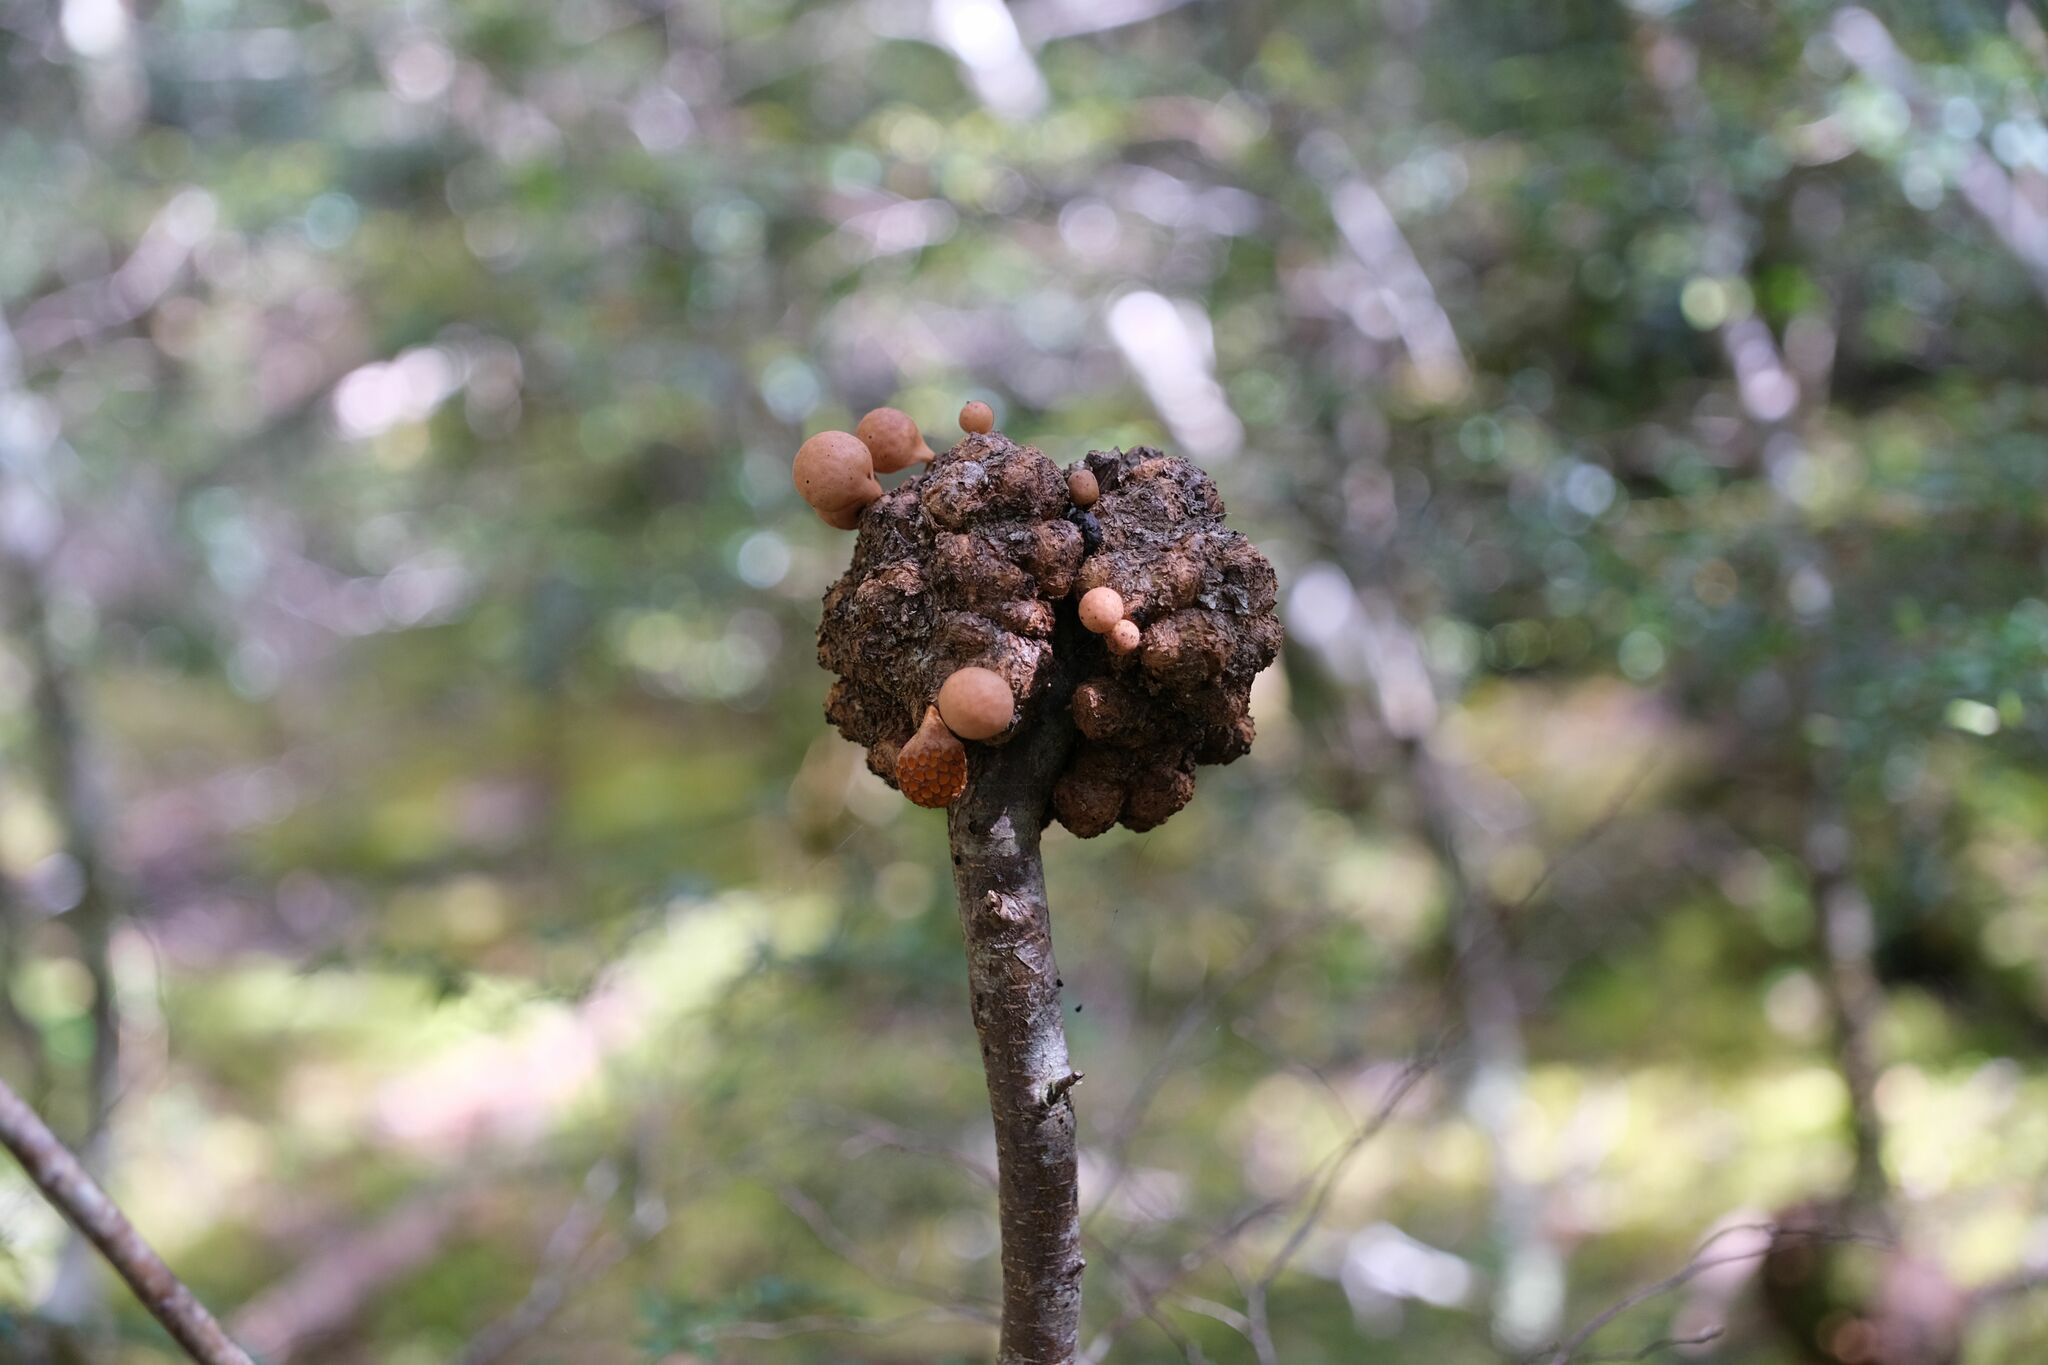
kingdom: Fungi
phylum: Ascomycota
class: Leotiomycetes
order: Cyttariales
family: Cyttariaceae
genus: Cyttaria
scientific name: Cyttaria gunnii
